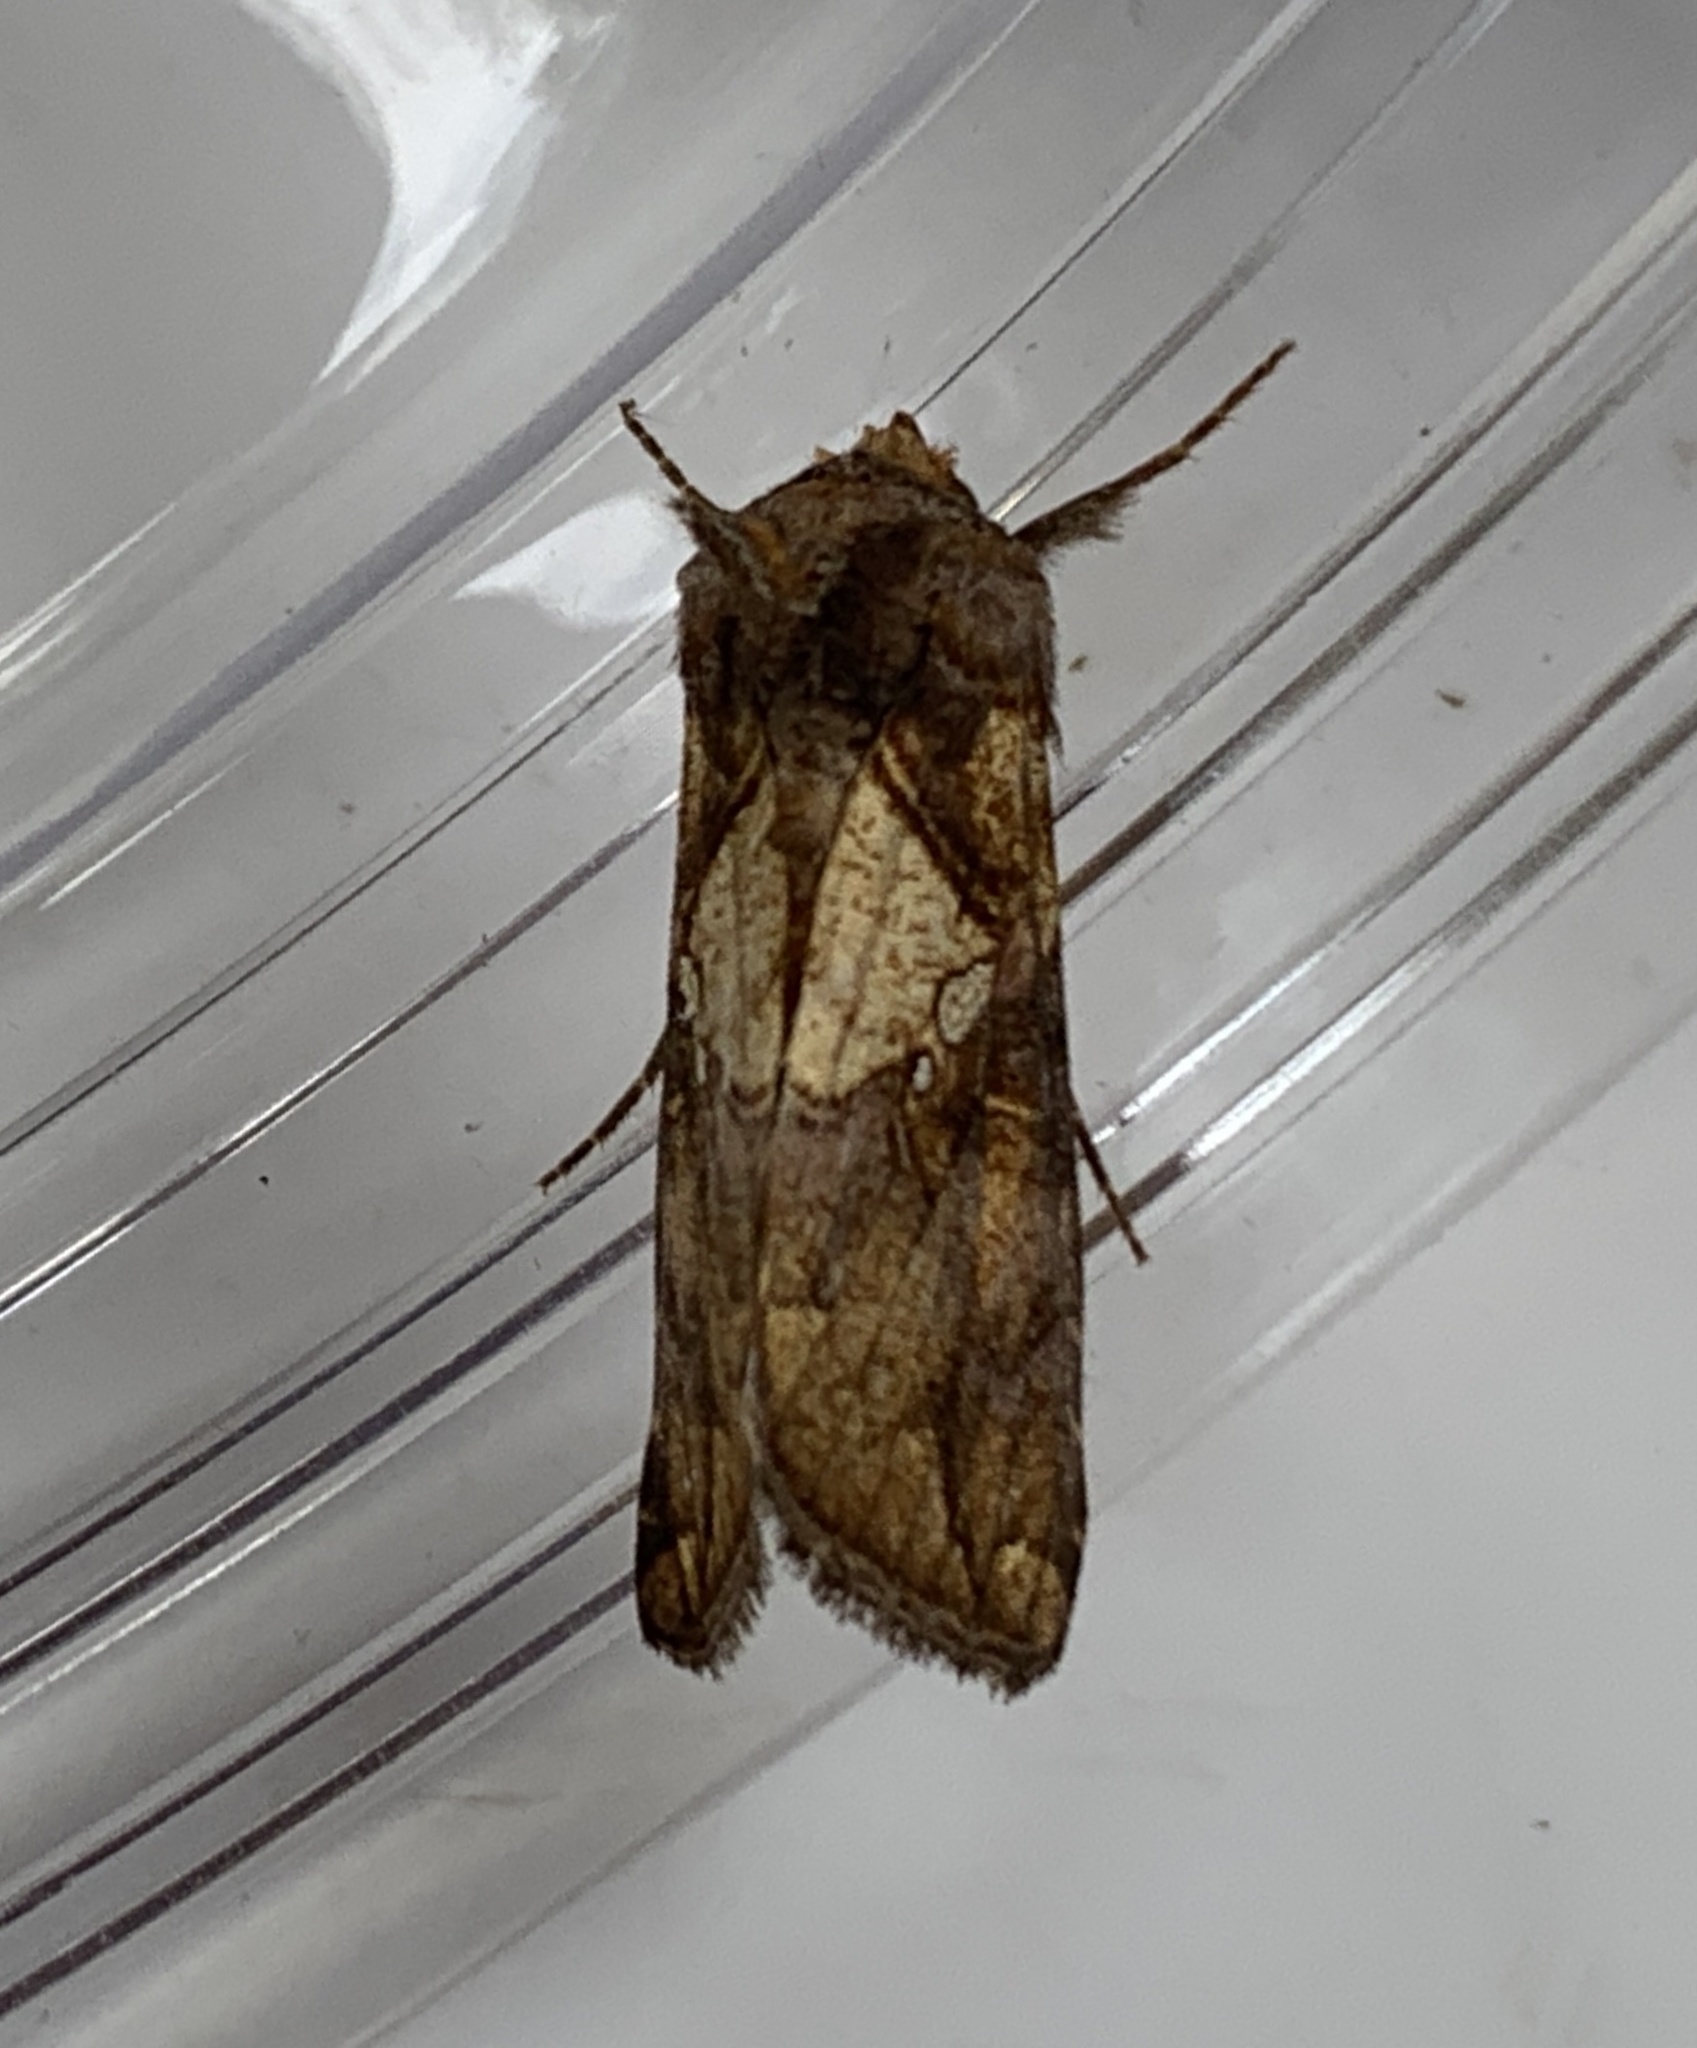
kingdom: Animalia
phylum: Arthropoda
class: Insecta
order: Lepidoptera
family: Noctuidae
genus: Argyrogramma
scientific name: Argyrogramma verruca
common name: Golden looper moth
